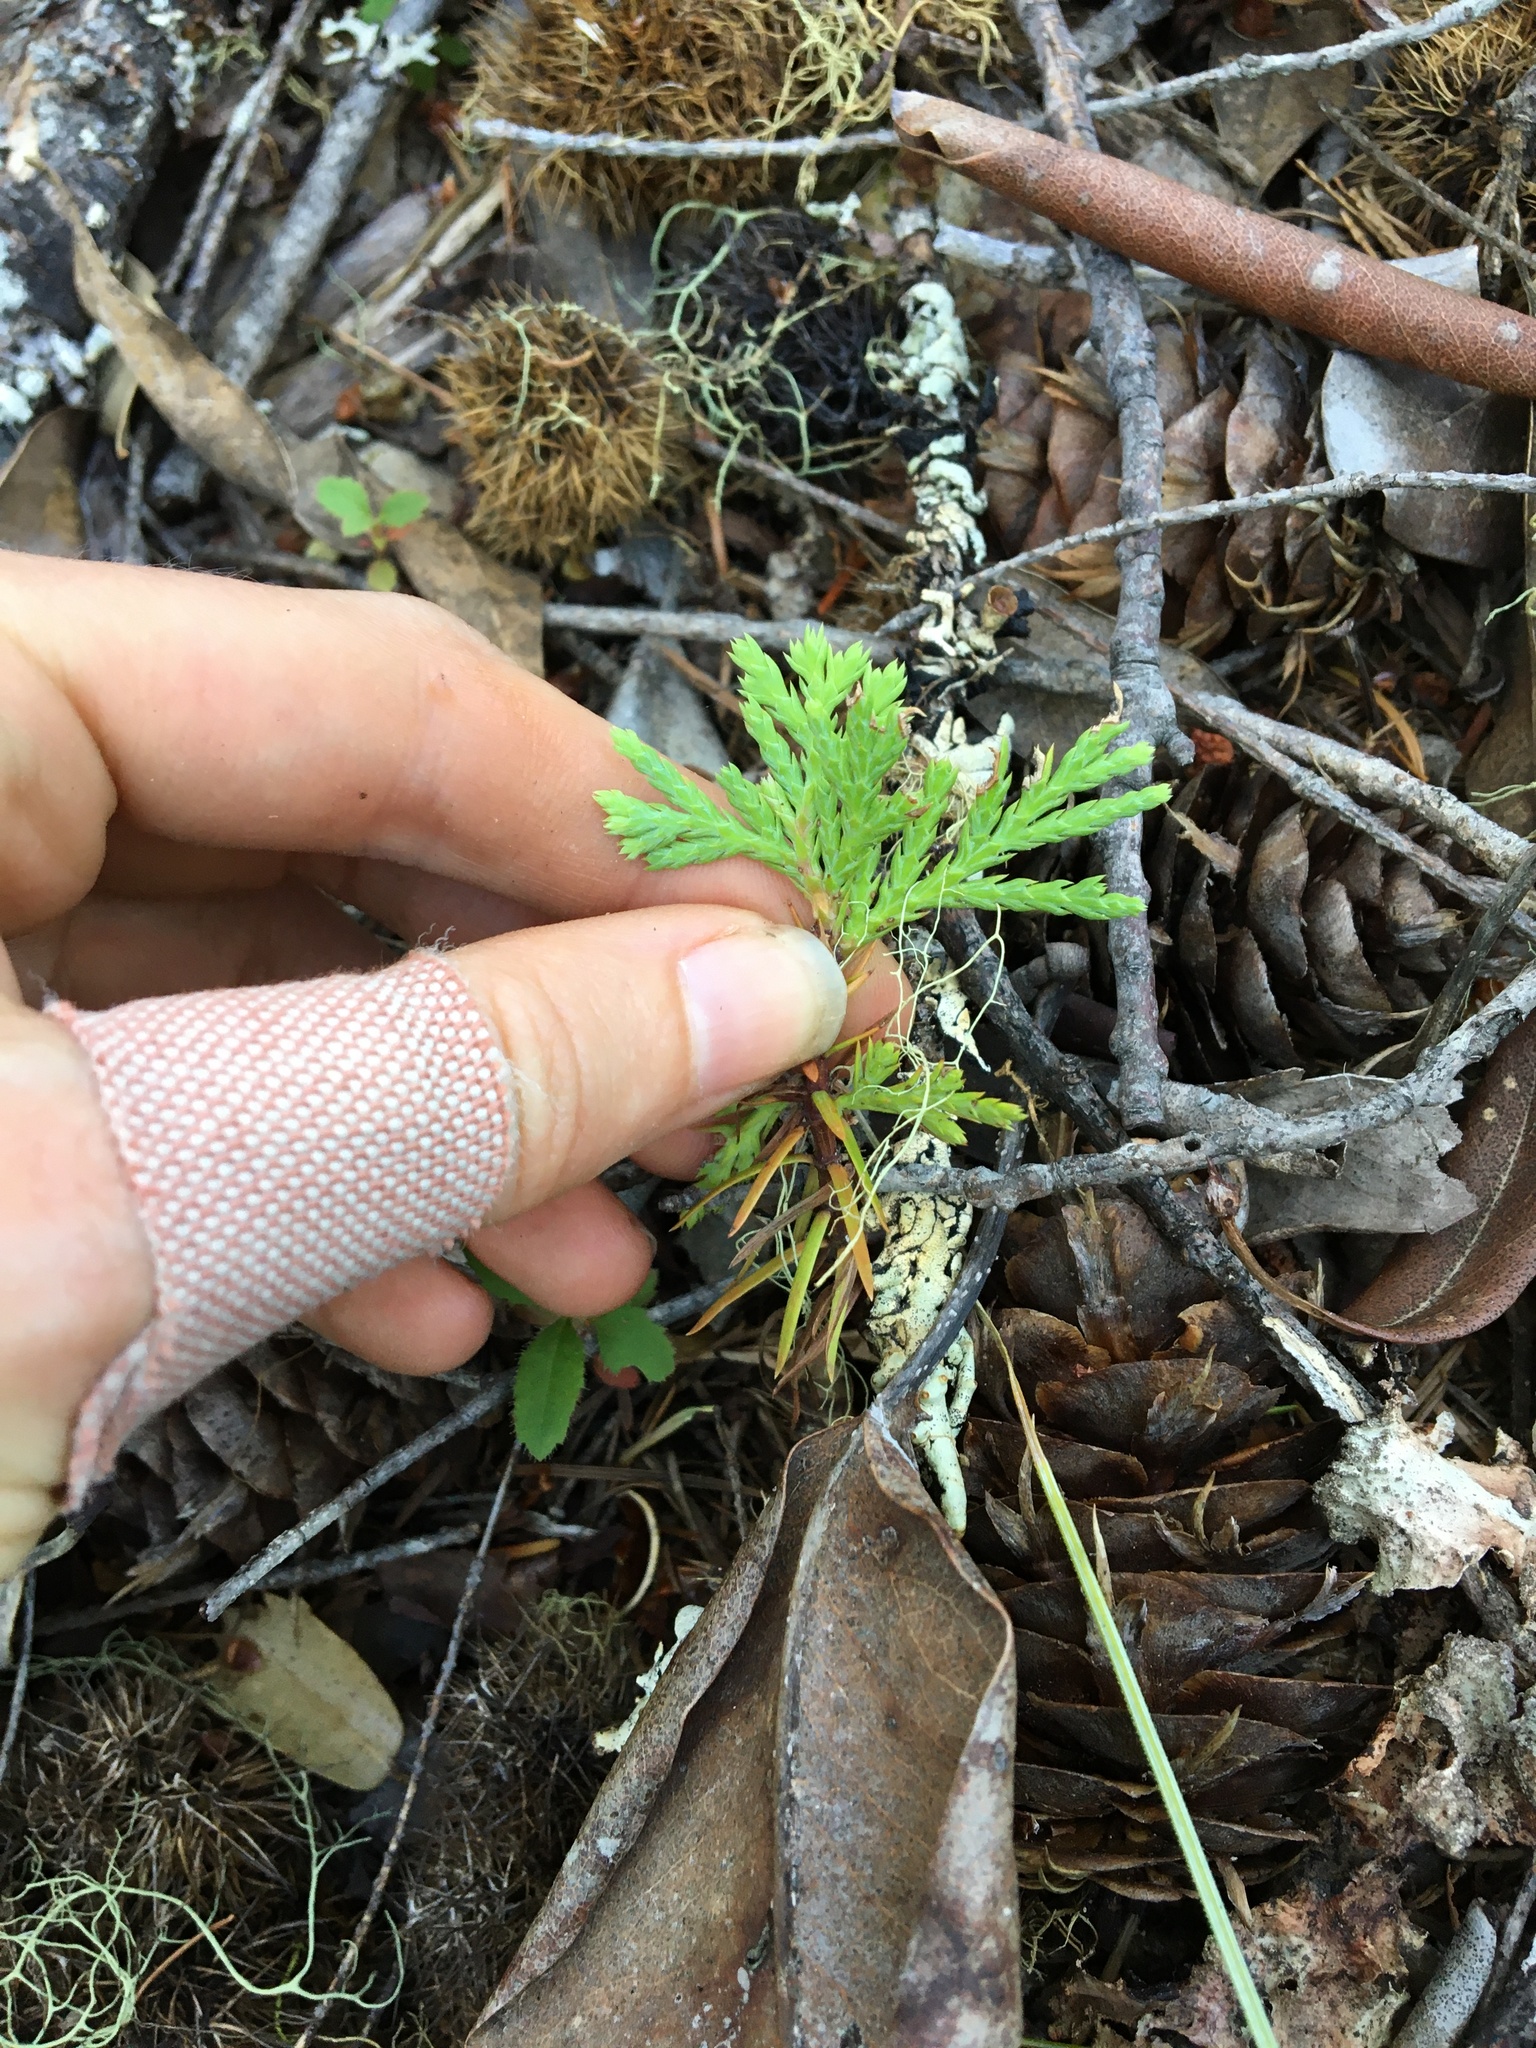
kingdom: Plantae
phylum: Tracheophyta
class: Pinopsida
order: Pinales
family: Cupressaceae
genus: Calocedrus
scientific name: Calocedrus decurrens
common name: Californian incense-cedar
